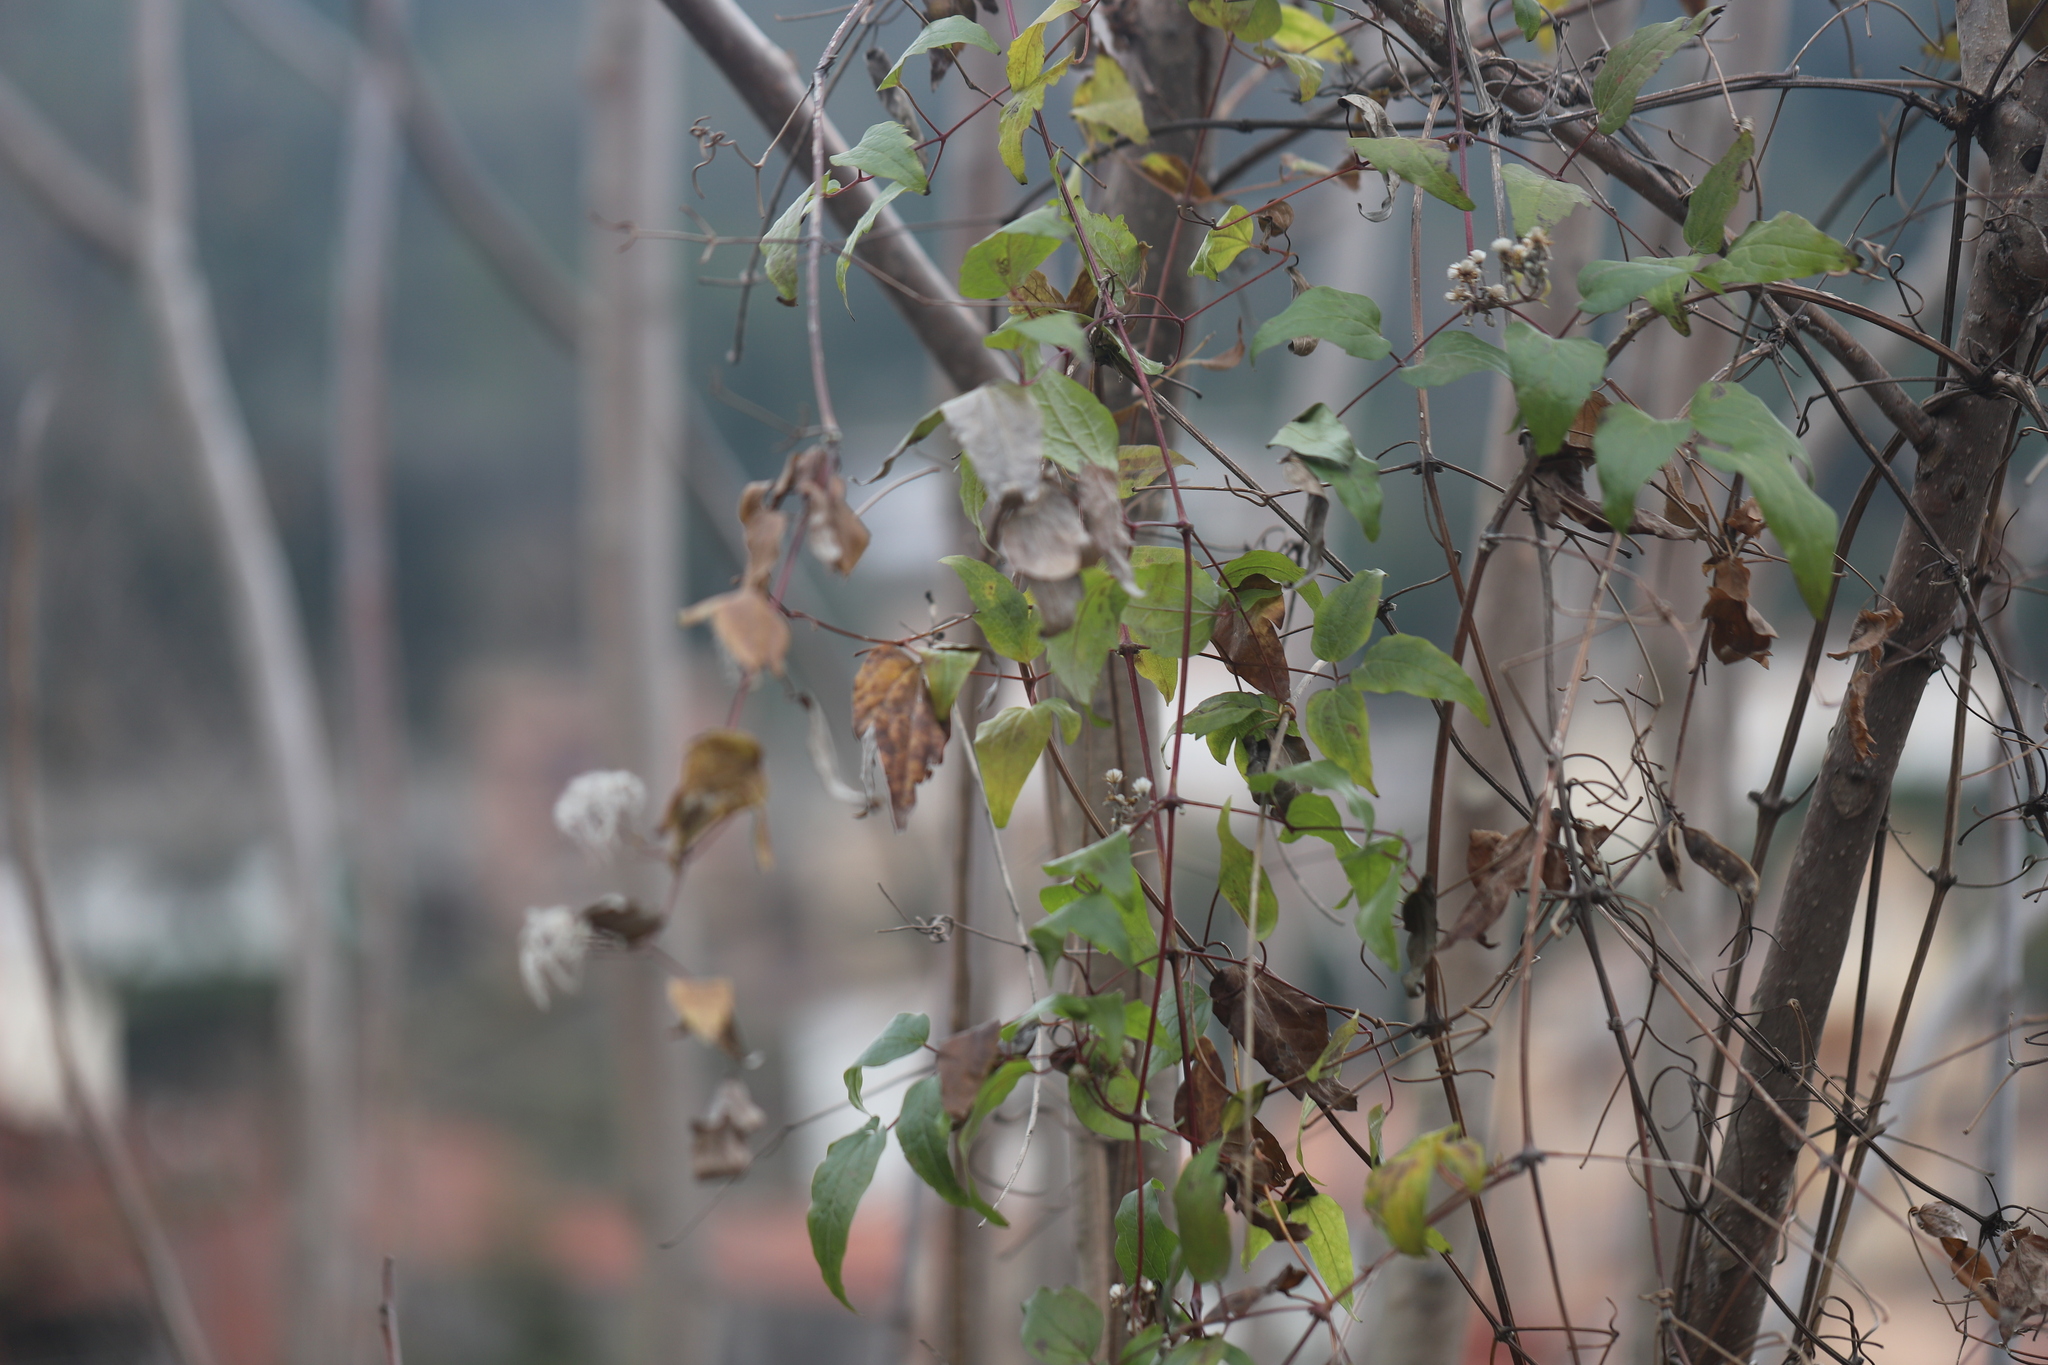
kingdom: Plantae
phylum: Tracheophyta
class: Magnoliopsida
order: Ranunculales
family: Ranunculaceae
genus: Clematis
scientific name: Clematis vitalba
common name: Evergreen clematis
